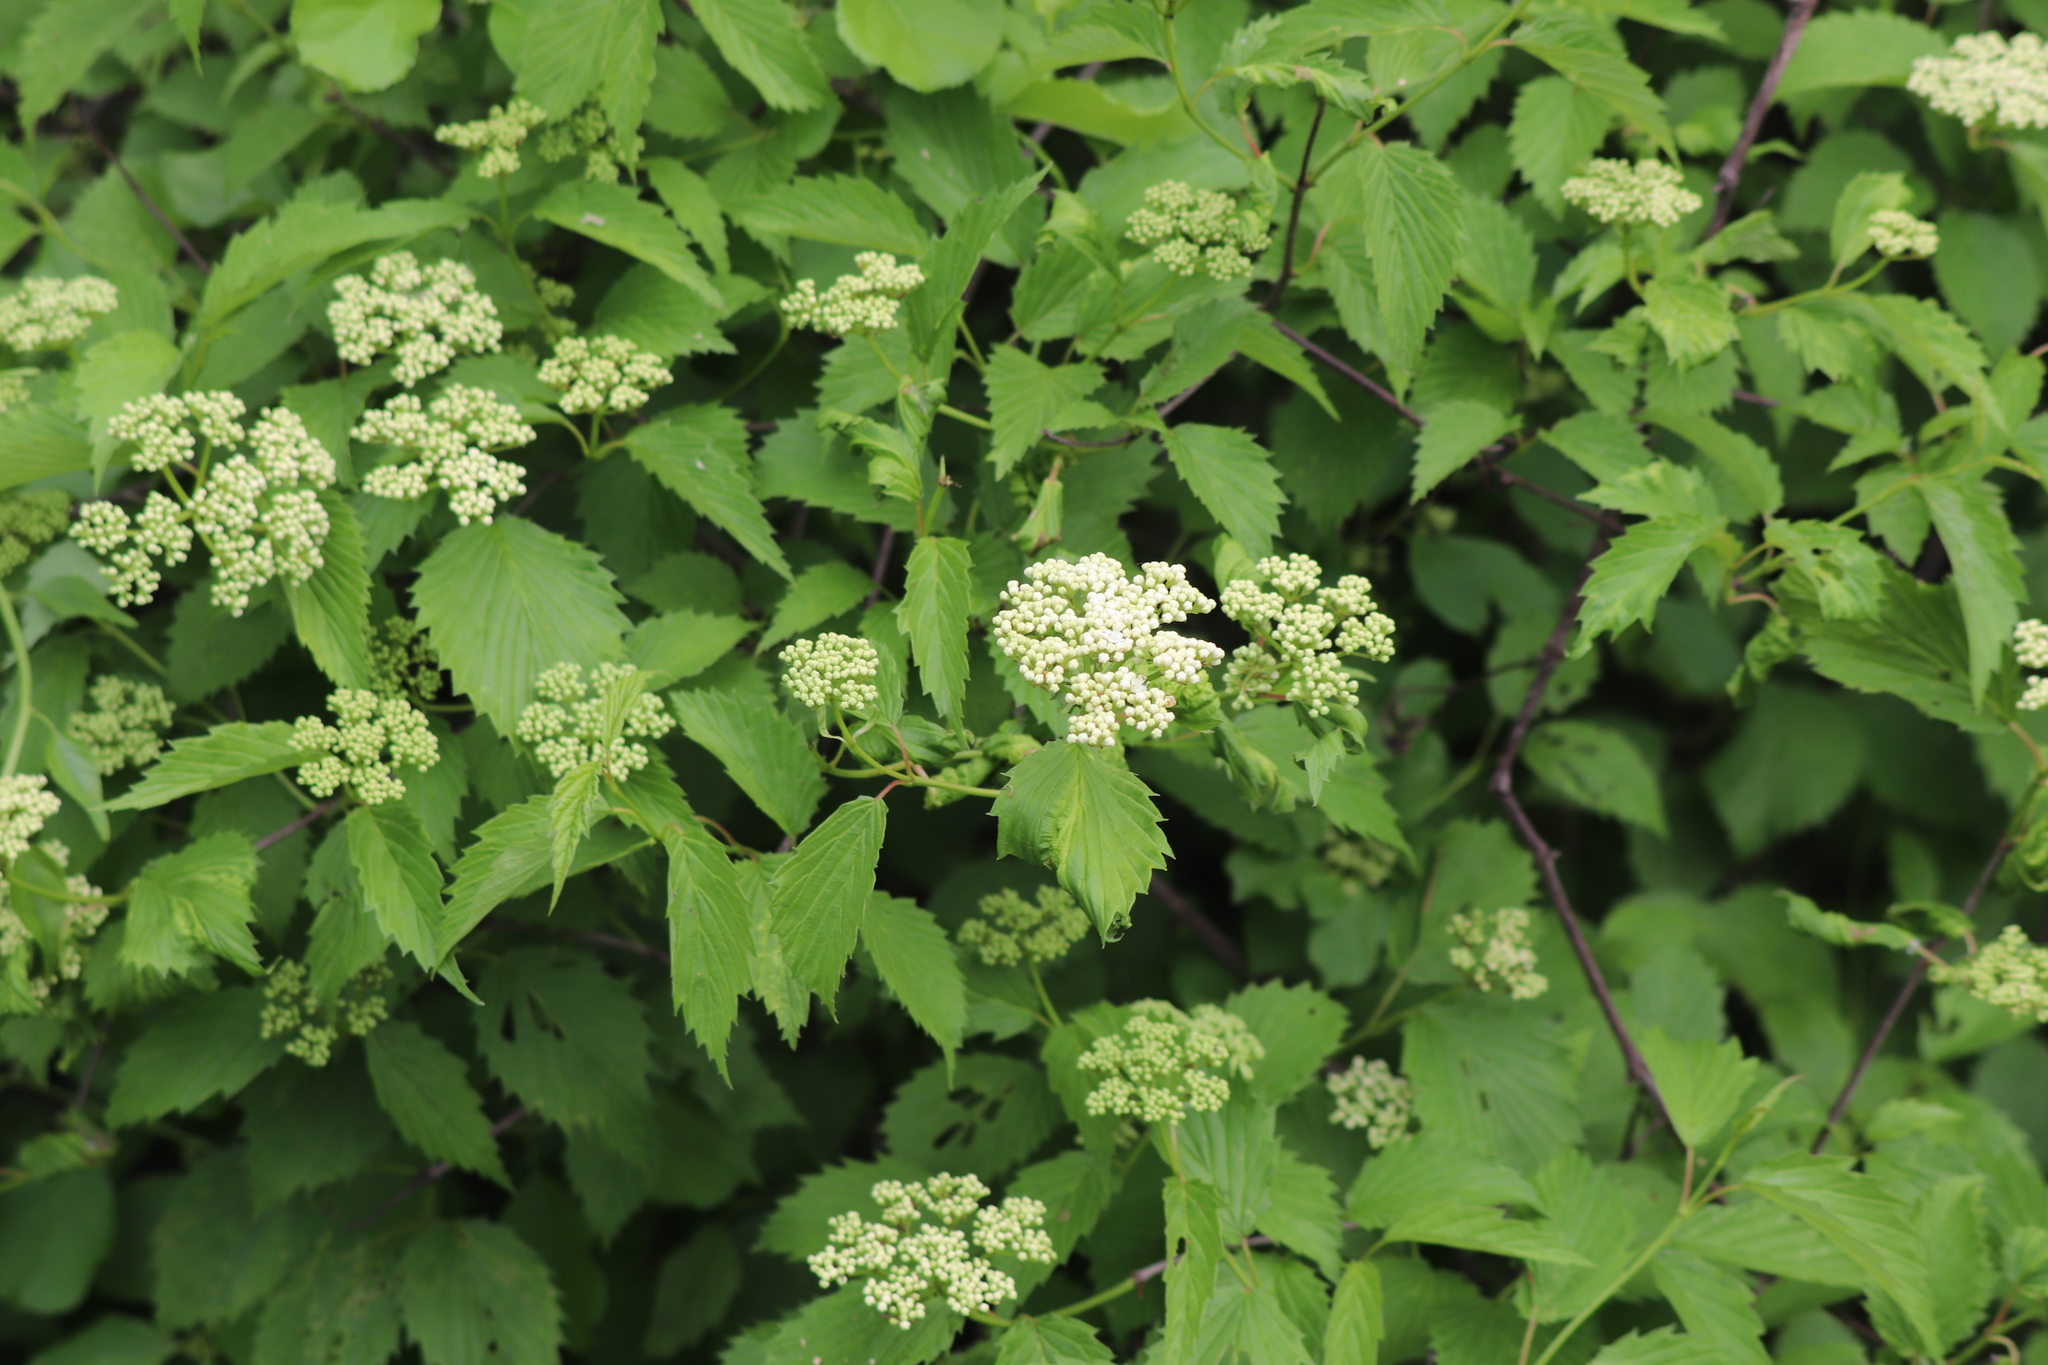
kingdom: Plantae
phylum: Tracheophyta
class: Magnoliopsida
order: Dipsacales
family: Viburnaceae
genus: Viburnum
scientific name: Viburnum dentatum
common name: Arrow-wood
